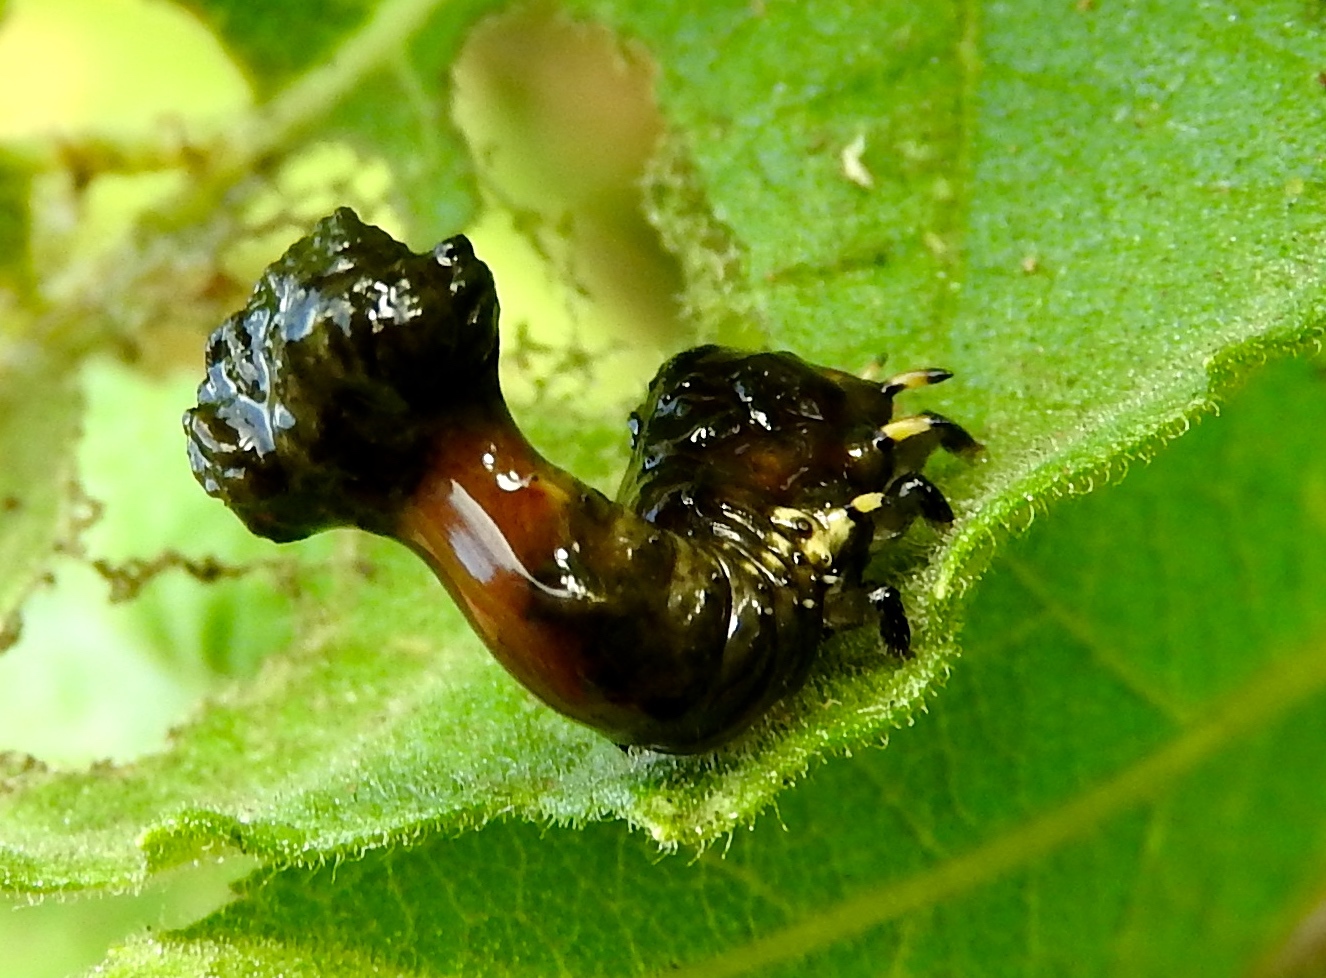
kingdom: Animalia
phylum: Arthropoda
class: Insecta
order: Coleoptera
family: Chrysomelidae
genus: Physonota
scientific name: Physonota arizonae
